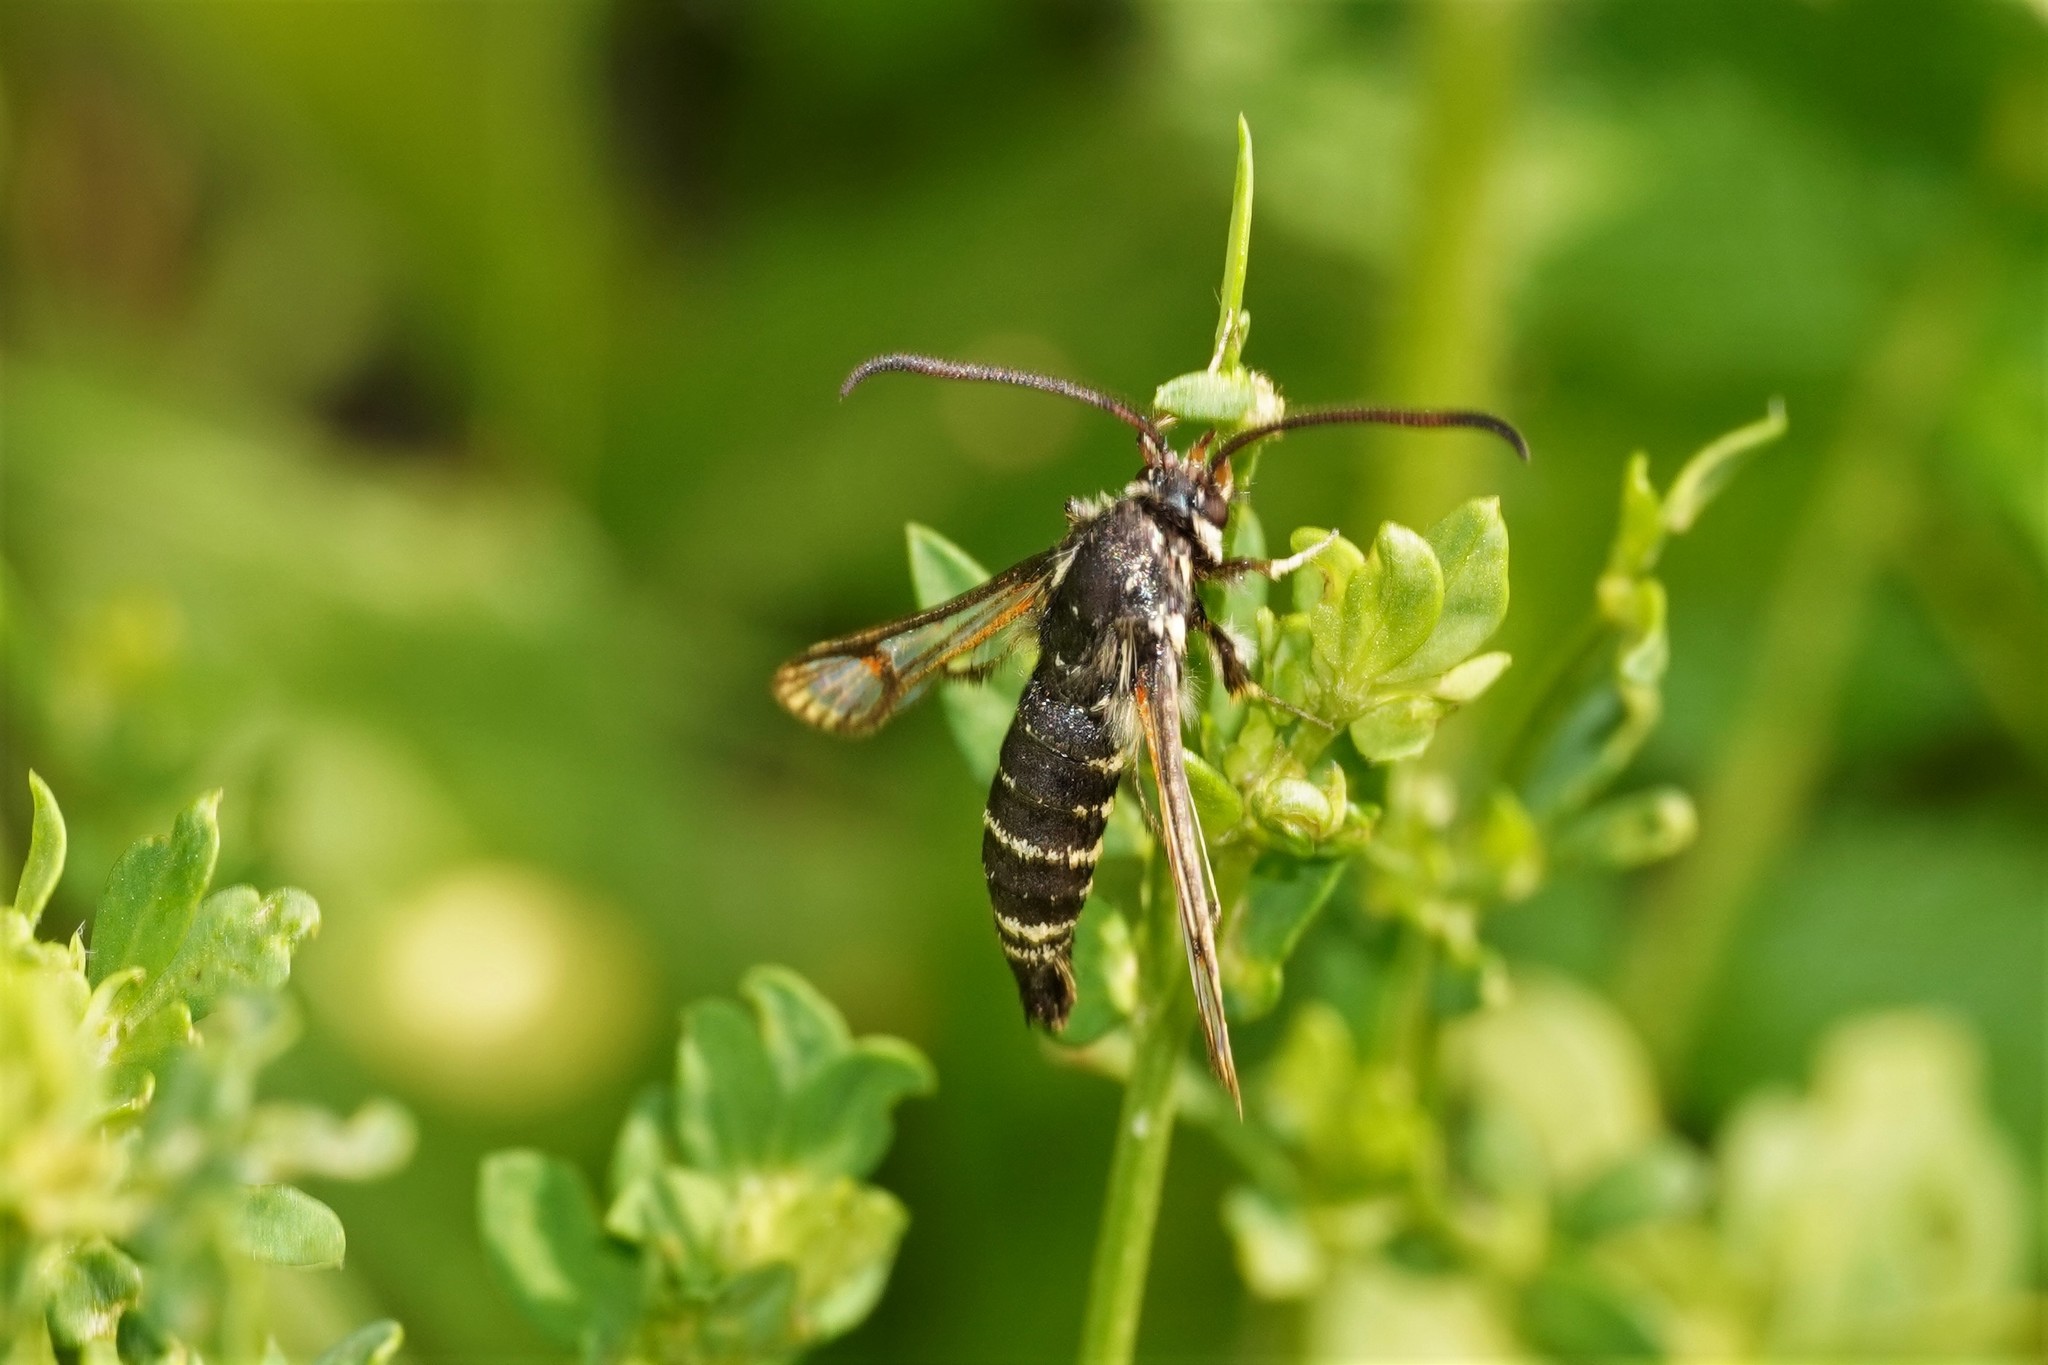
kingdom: Animalia
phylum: Arthropoda
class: Insecta
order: Lepidoptera
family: Sesiidae
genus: Bembecia
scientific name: Bembecia ichneumoniformis
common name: Six-belted clearwing
